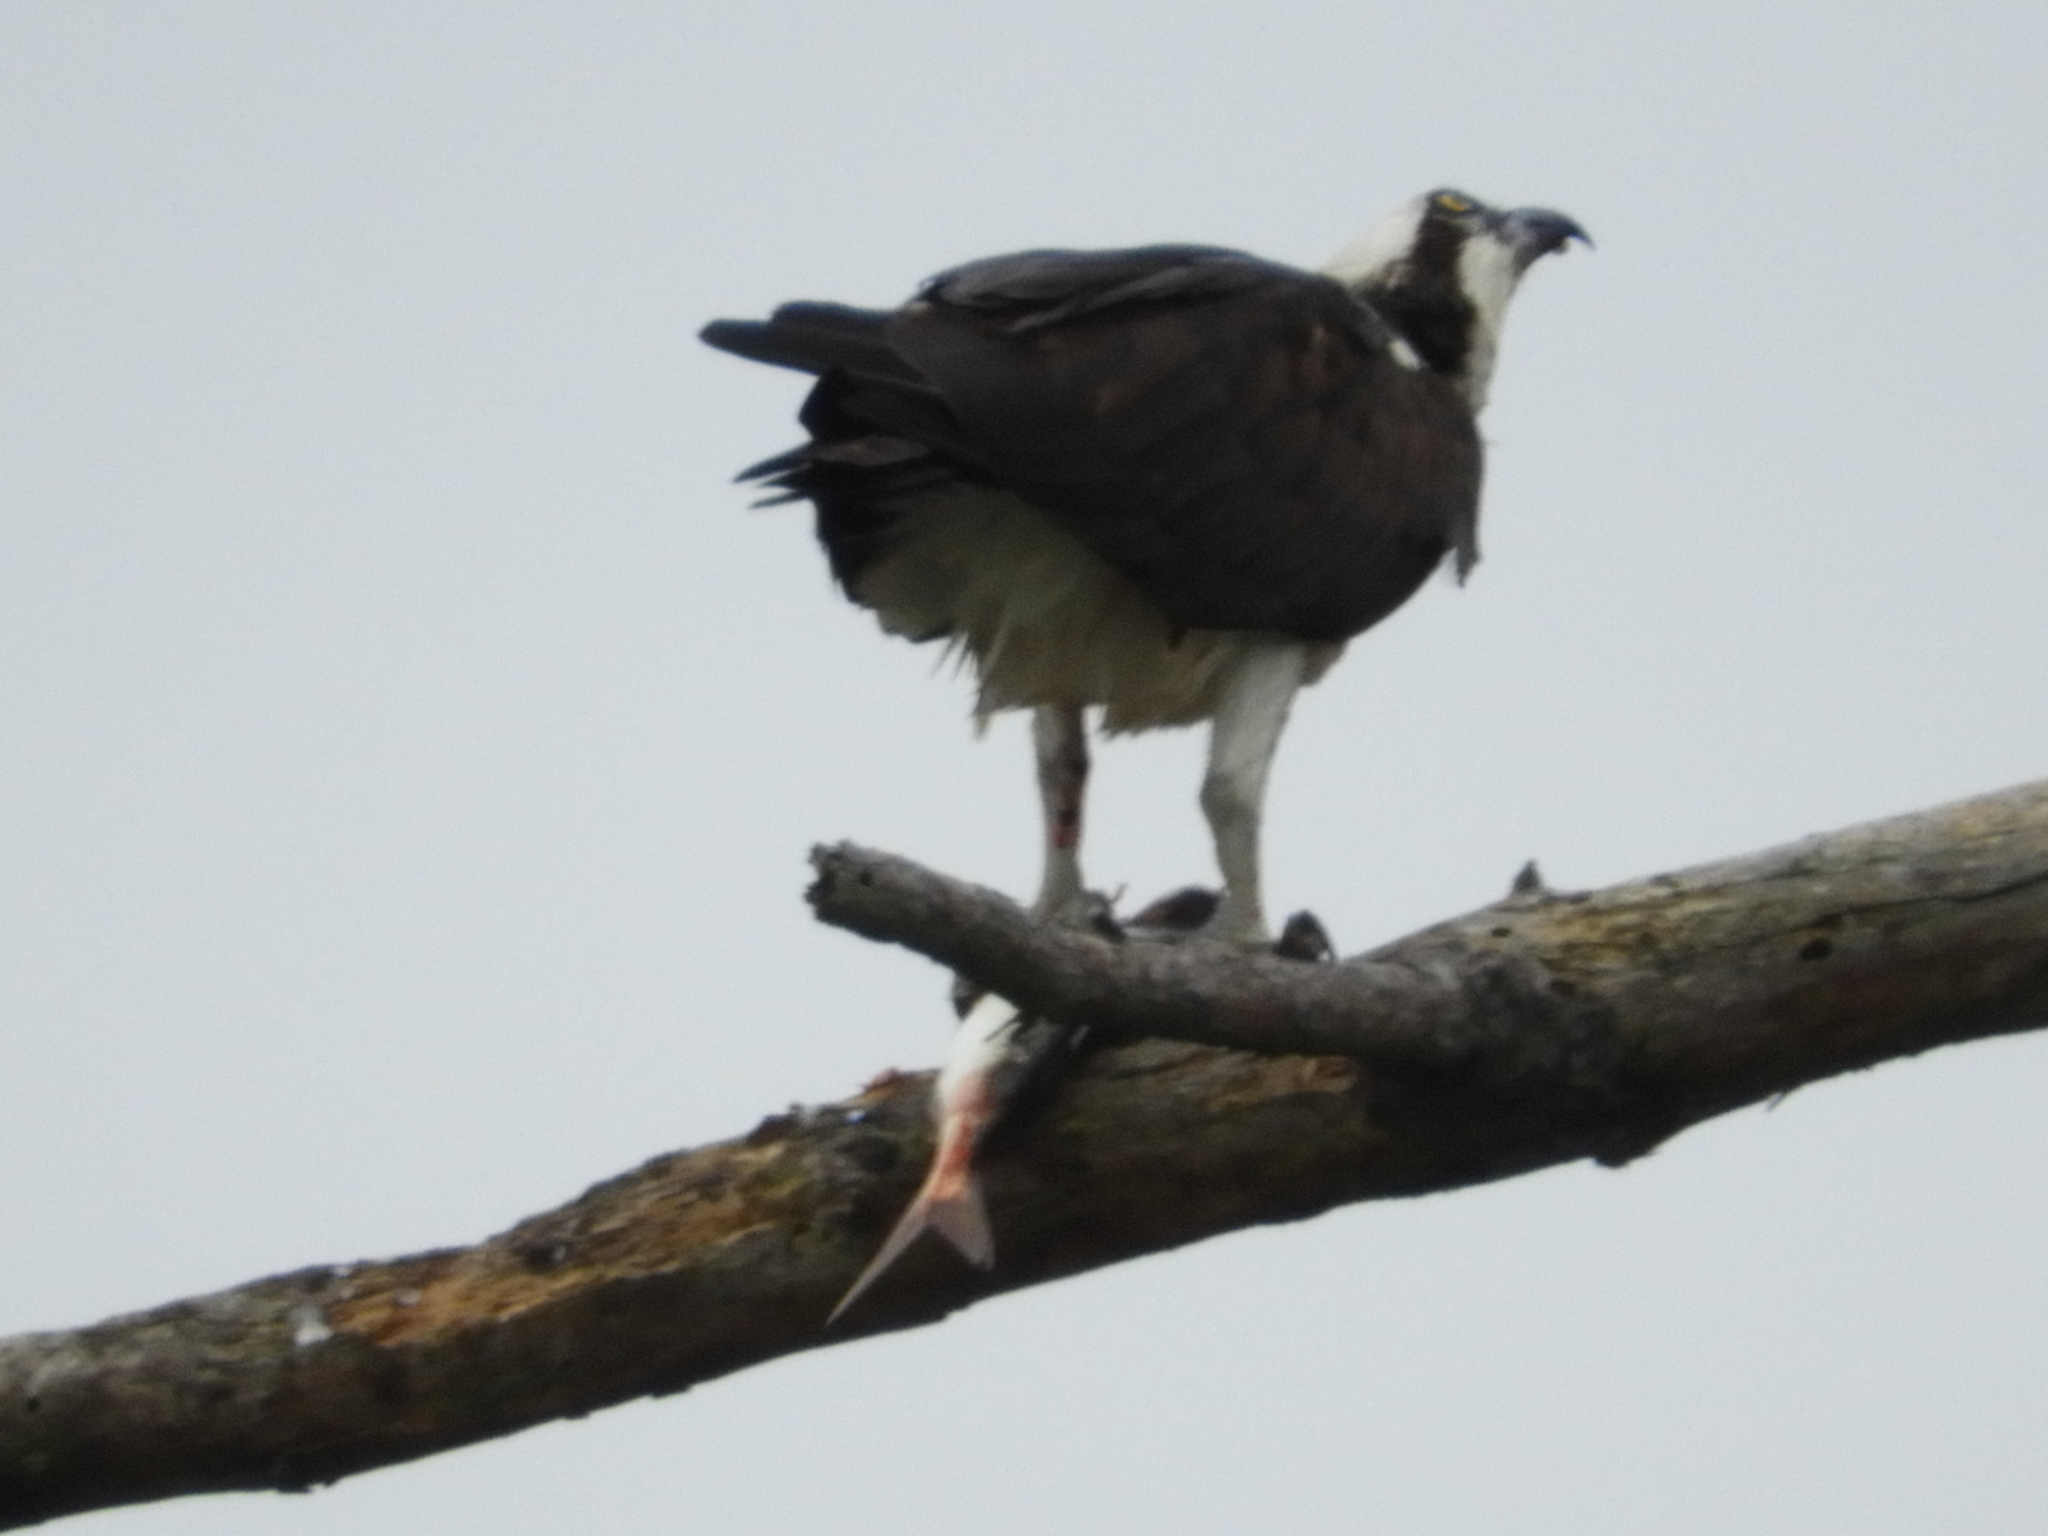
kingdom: Animalia
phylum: Chordata
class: Aves
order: Accipitriformes
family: Pandionidae
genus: Pandion
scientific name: Pandion haliaetus
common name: Osprey
